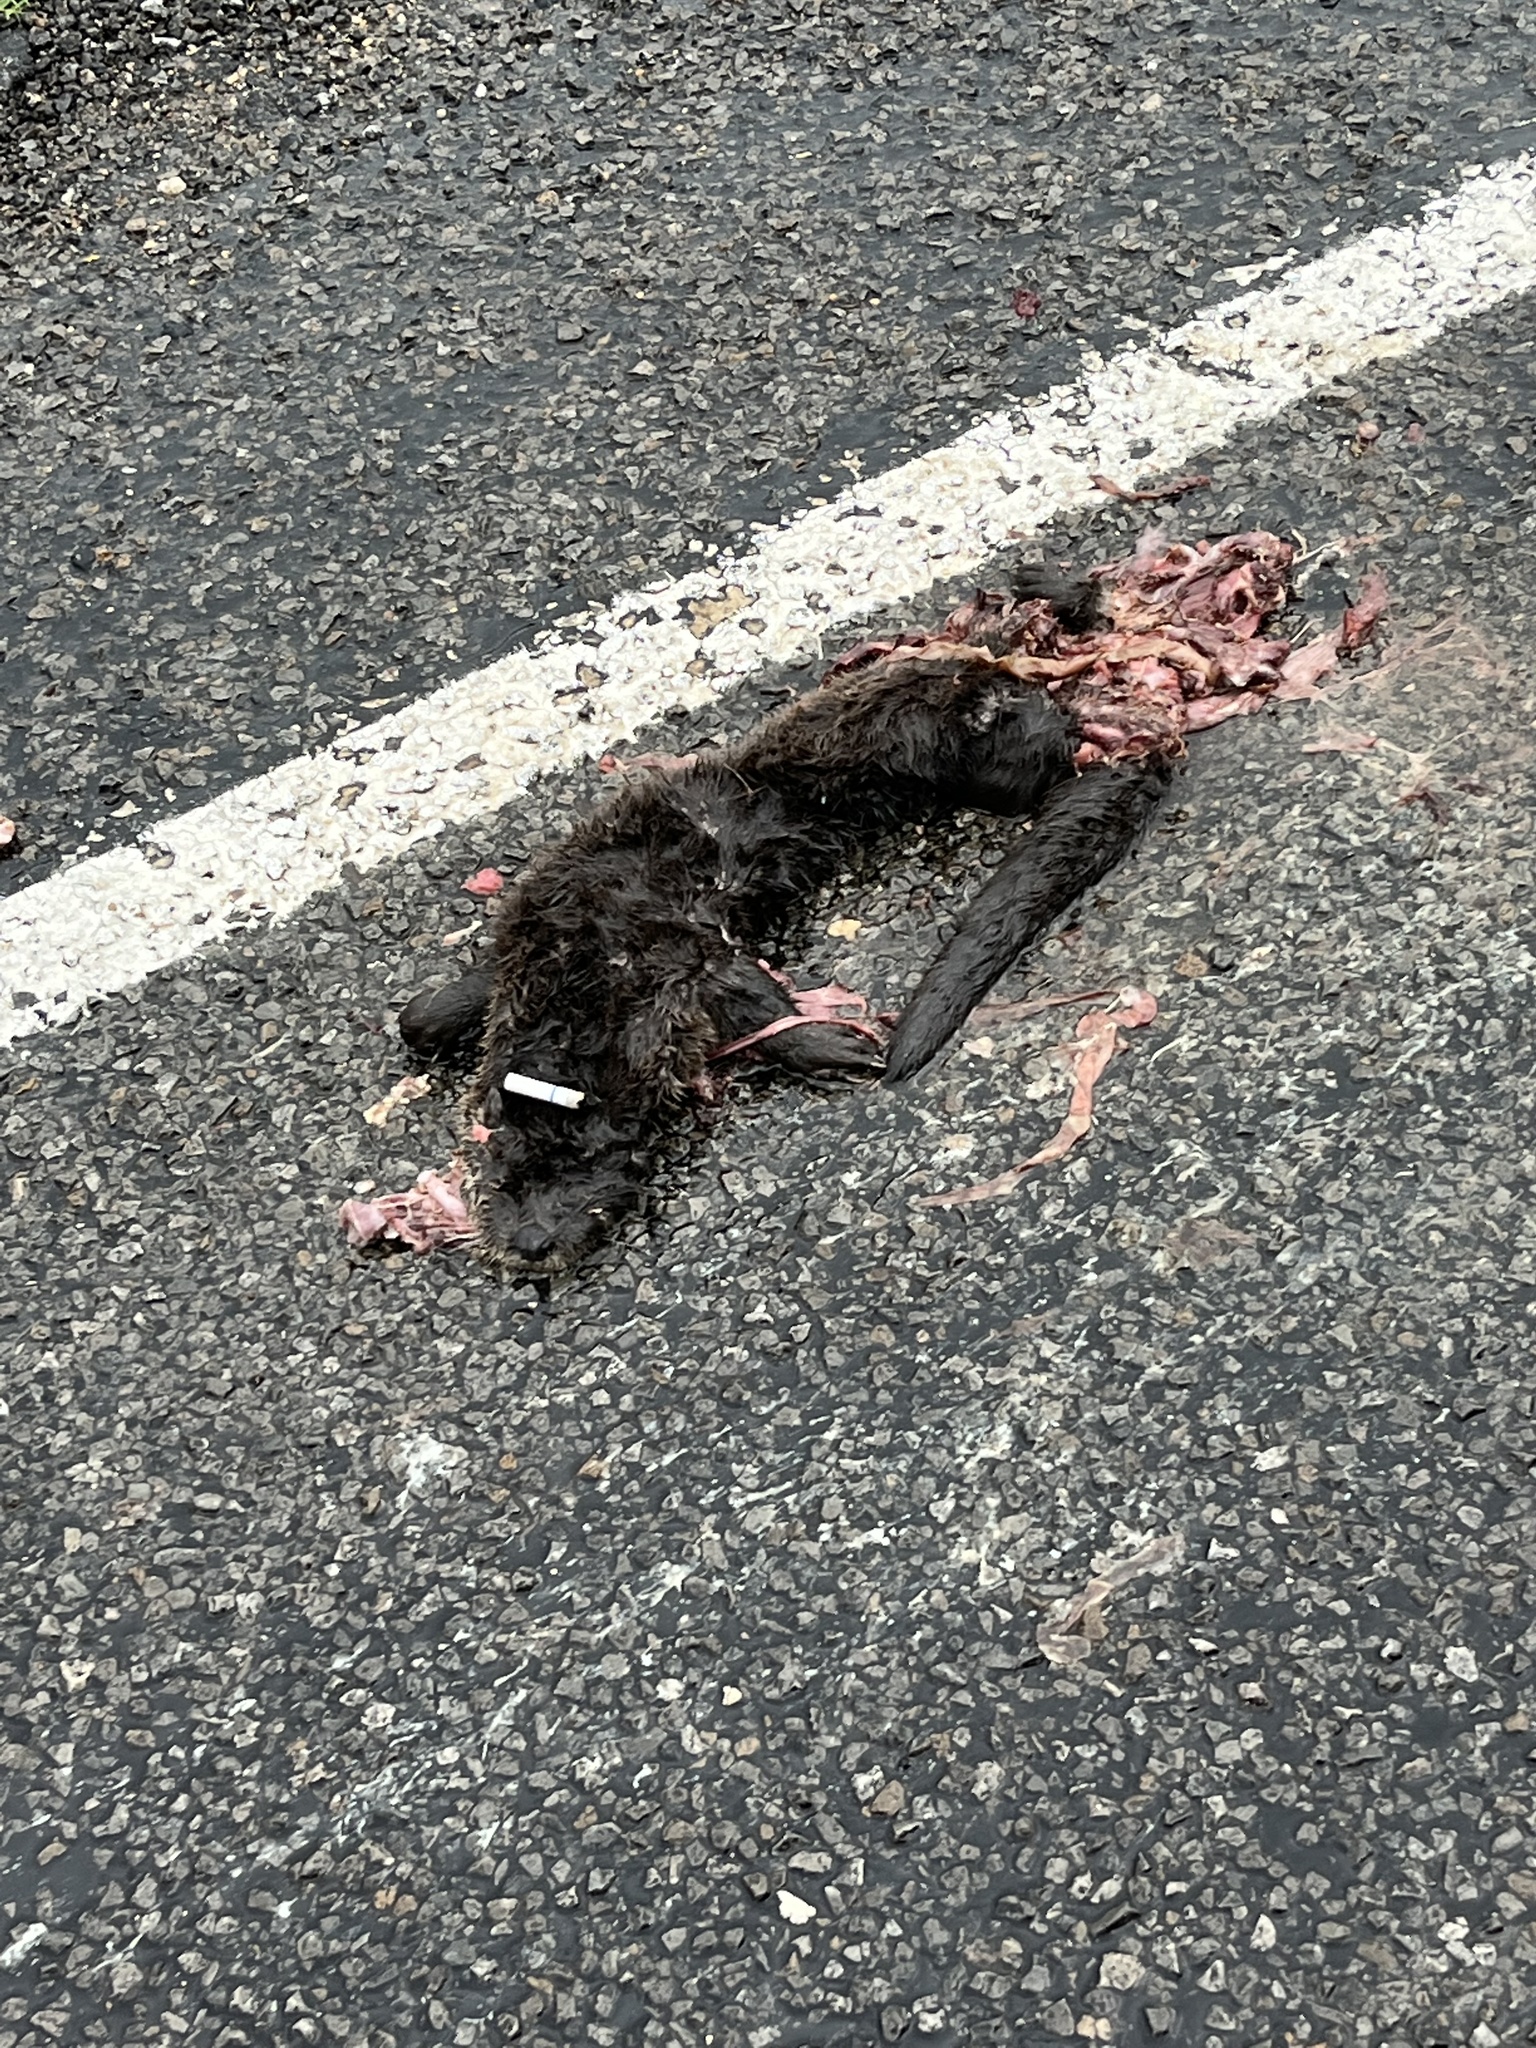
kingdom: Animalia
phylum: Chordata
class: Mammalia
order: Carnivora
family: Mustelidae
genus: Lontra
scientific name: Lontra canadensis
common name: North american river otter
